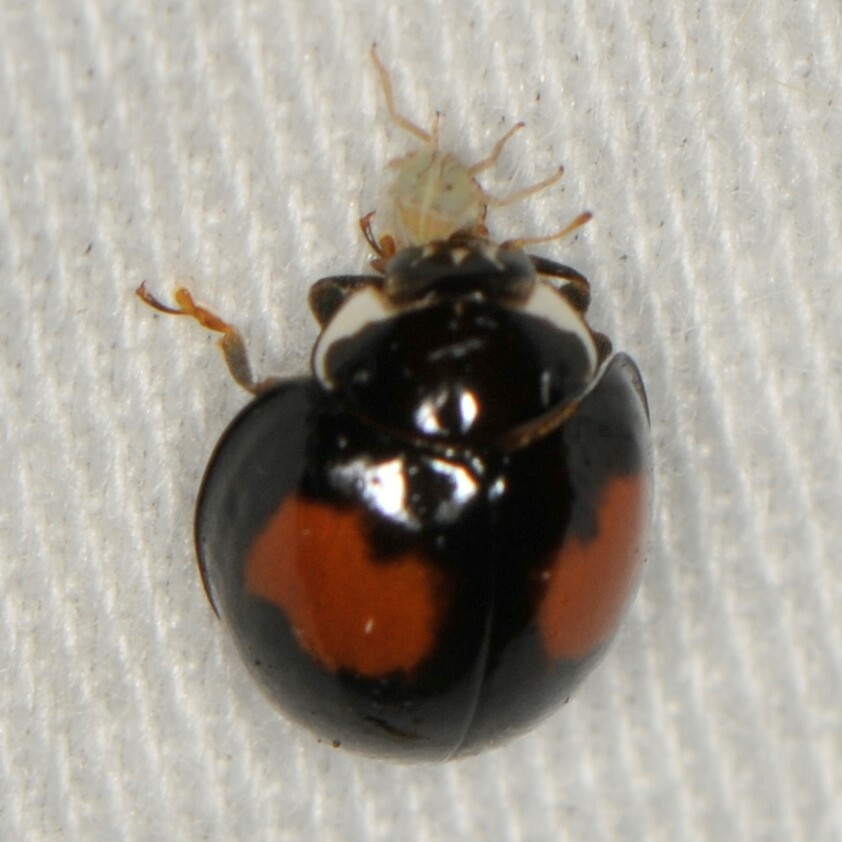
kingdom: Animalia
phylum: Arthropoda
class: Insecta
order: Coleoptera
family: Coccinellidae
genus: Olla
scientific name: Olla v-nigrum
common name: Ashy gray lady beetle
